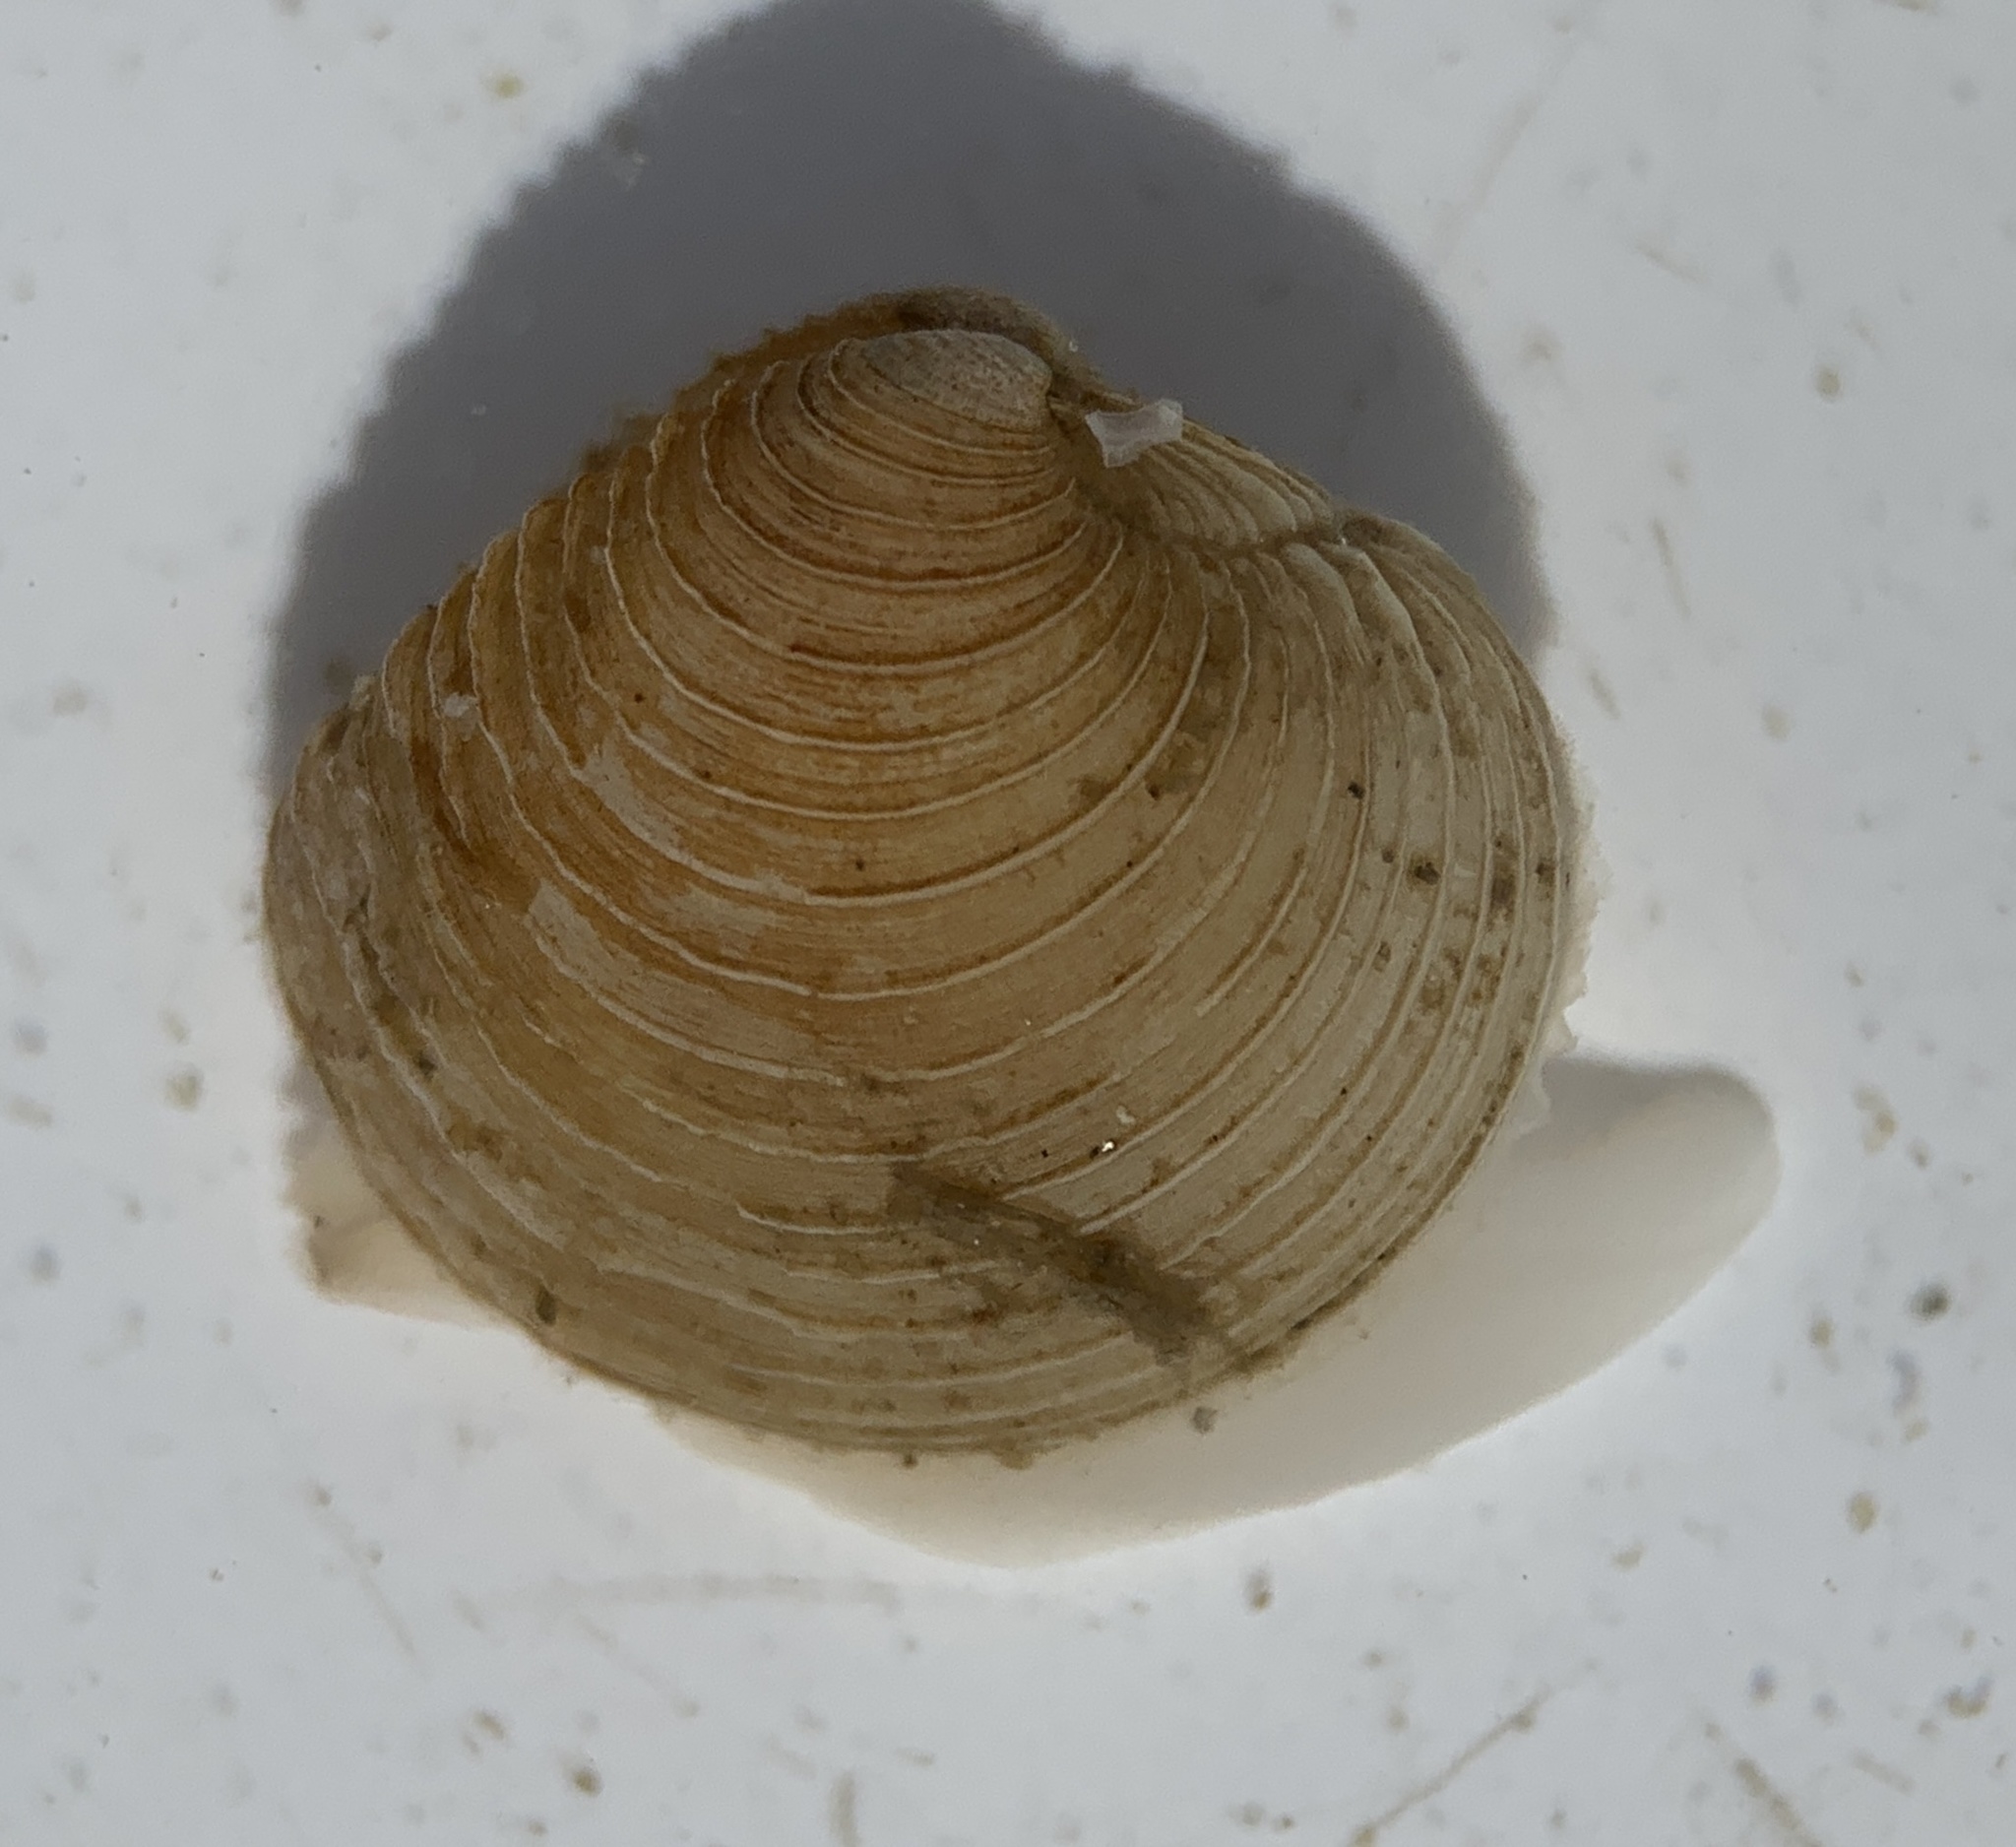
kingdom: Animalia
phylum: Mollusca
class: Bivalvia
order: Venerida
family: Veneridae
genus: Mercenaria
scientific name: Mercenaria mercenaria
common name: American hard-shelled clam
